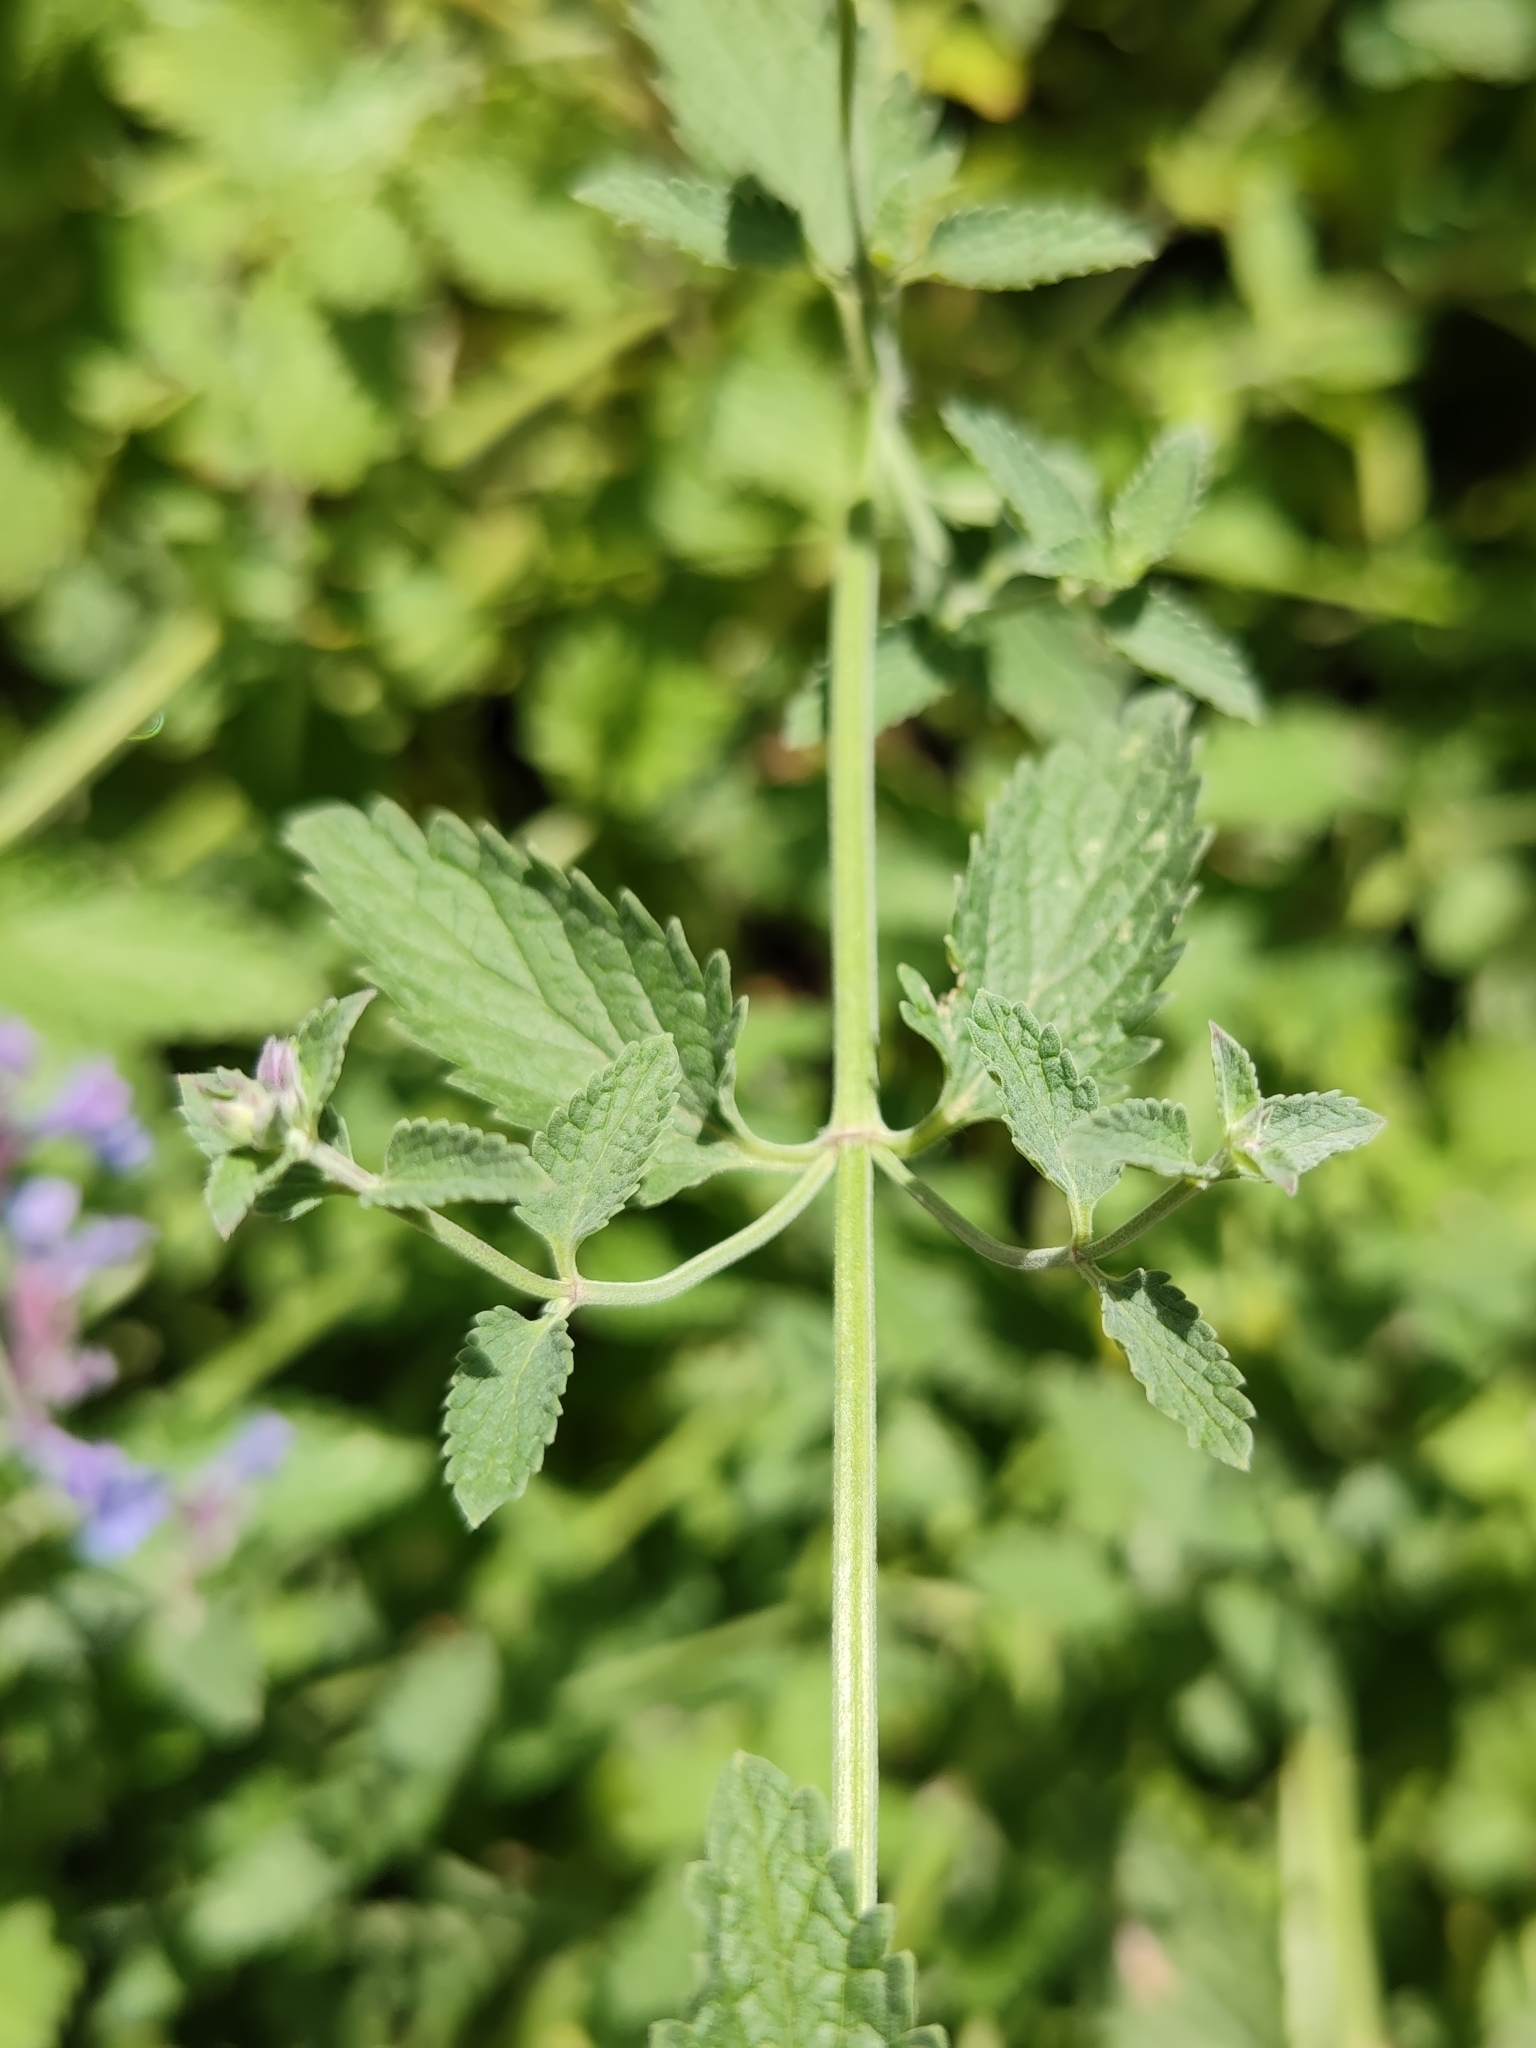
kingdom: Plantae
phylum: Tracheophyta
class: Magnoliopsida
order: Lamiales
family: Lamiaceae
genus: Nepeta
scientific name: Nepeta faassenii
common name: Catmint
